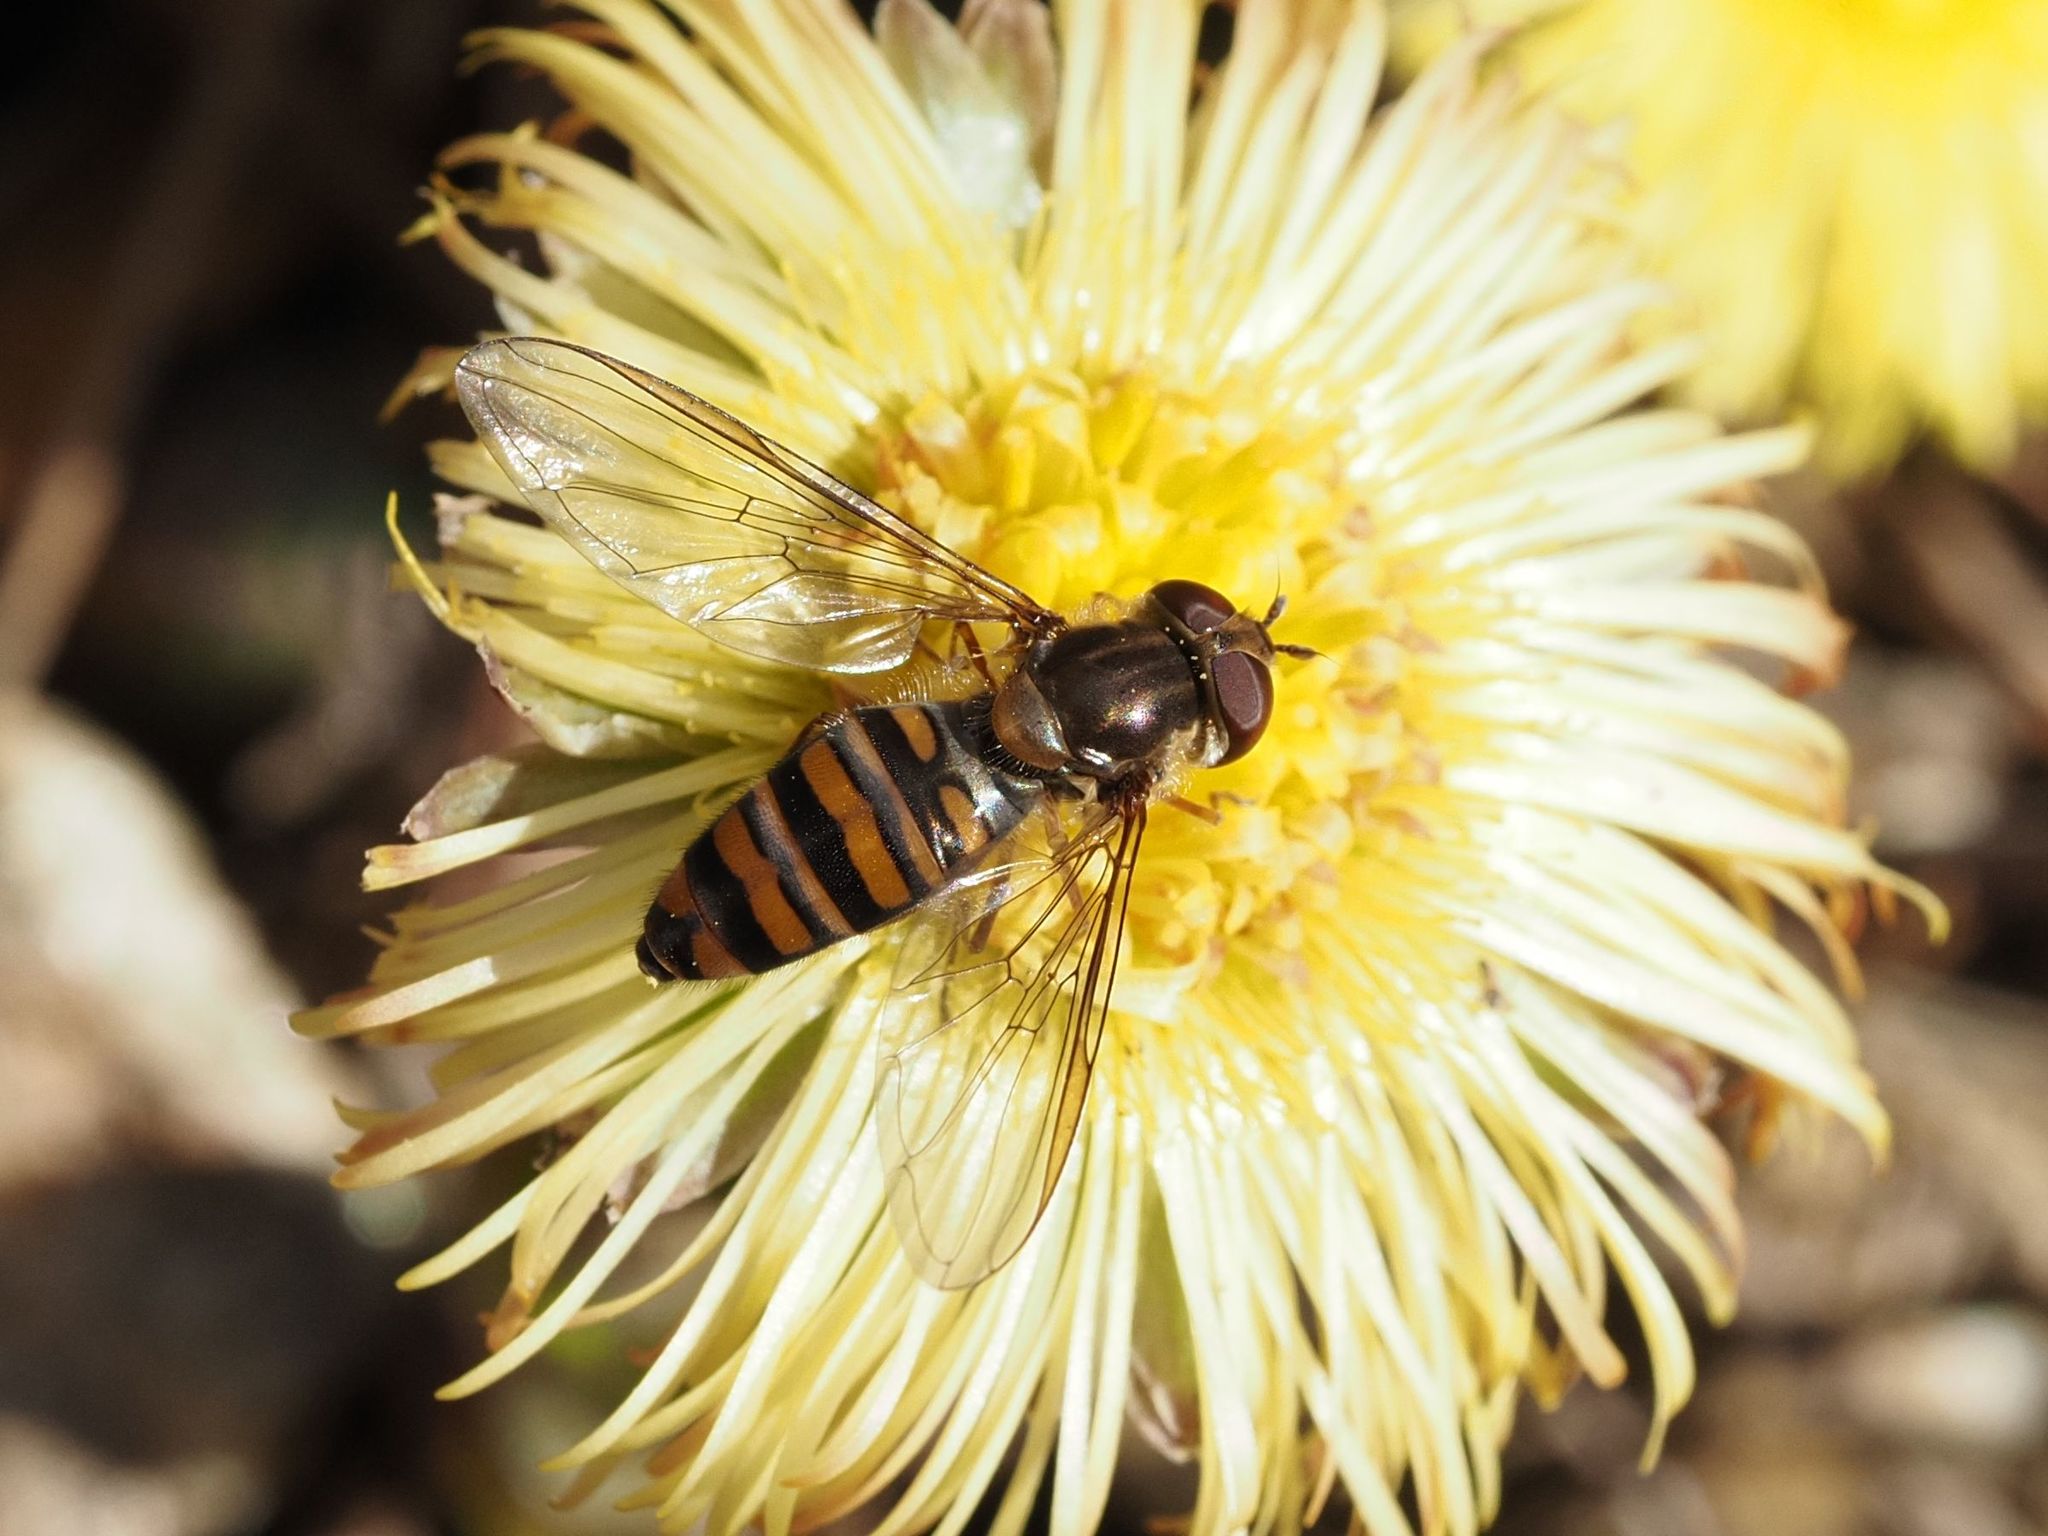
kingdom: Animalia
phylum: Arthropoda
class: Insecta
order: Diptera
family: Syrphidae
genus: Episyrphus
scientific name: Episyrphus balteatus
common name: Marmalade hoverfly
